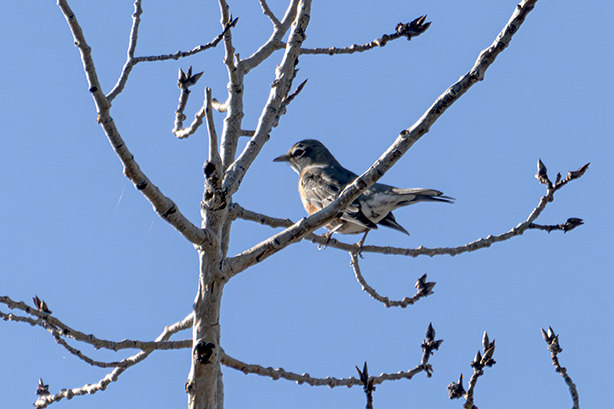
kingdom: Animalia
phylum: Chordata
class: Aves
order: Passeriformes
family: Turdidae
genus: Turdus
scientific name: Turdus migratorius
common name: American robin
